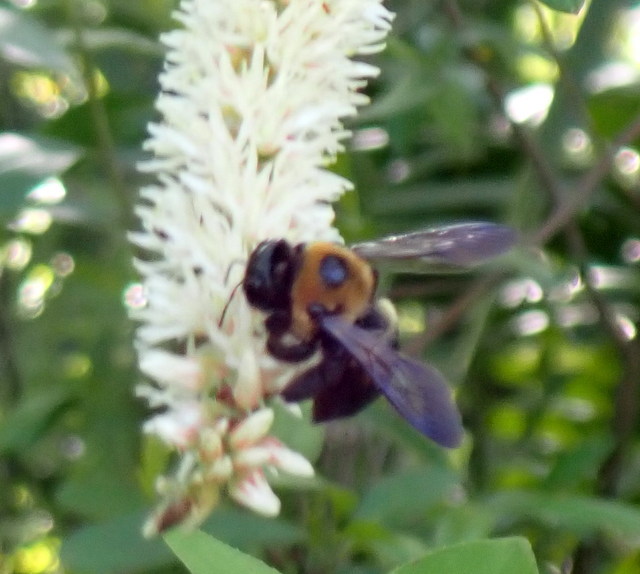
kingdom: Animalia
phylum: Arthropoda
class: Insecta
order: Hymenoptera
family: Apidae
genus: Xylocopa
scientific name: Xylocopa virginica
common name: Carpenter bee
